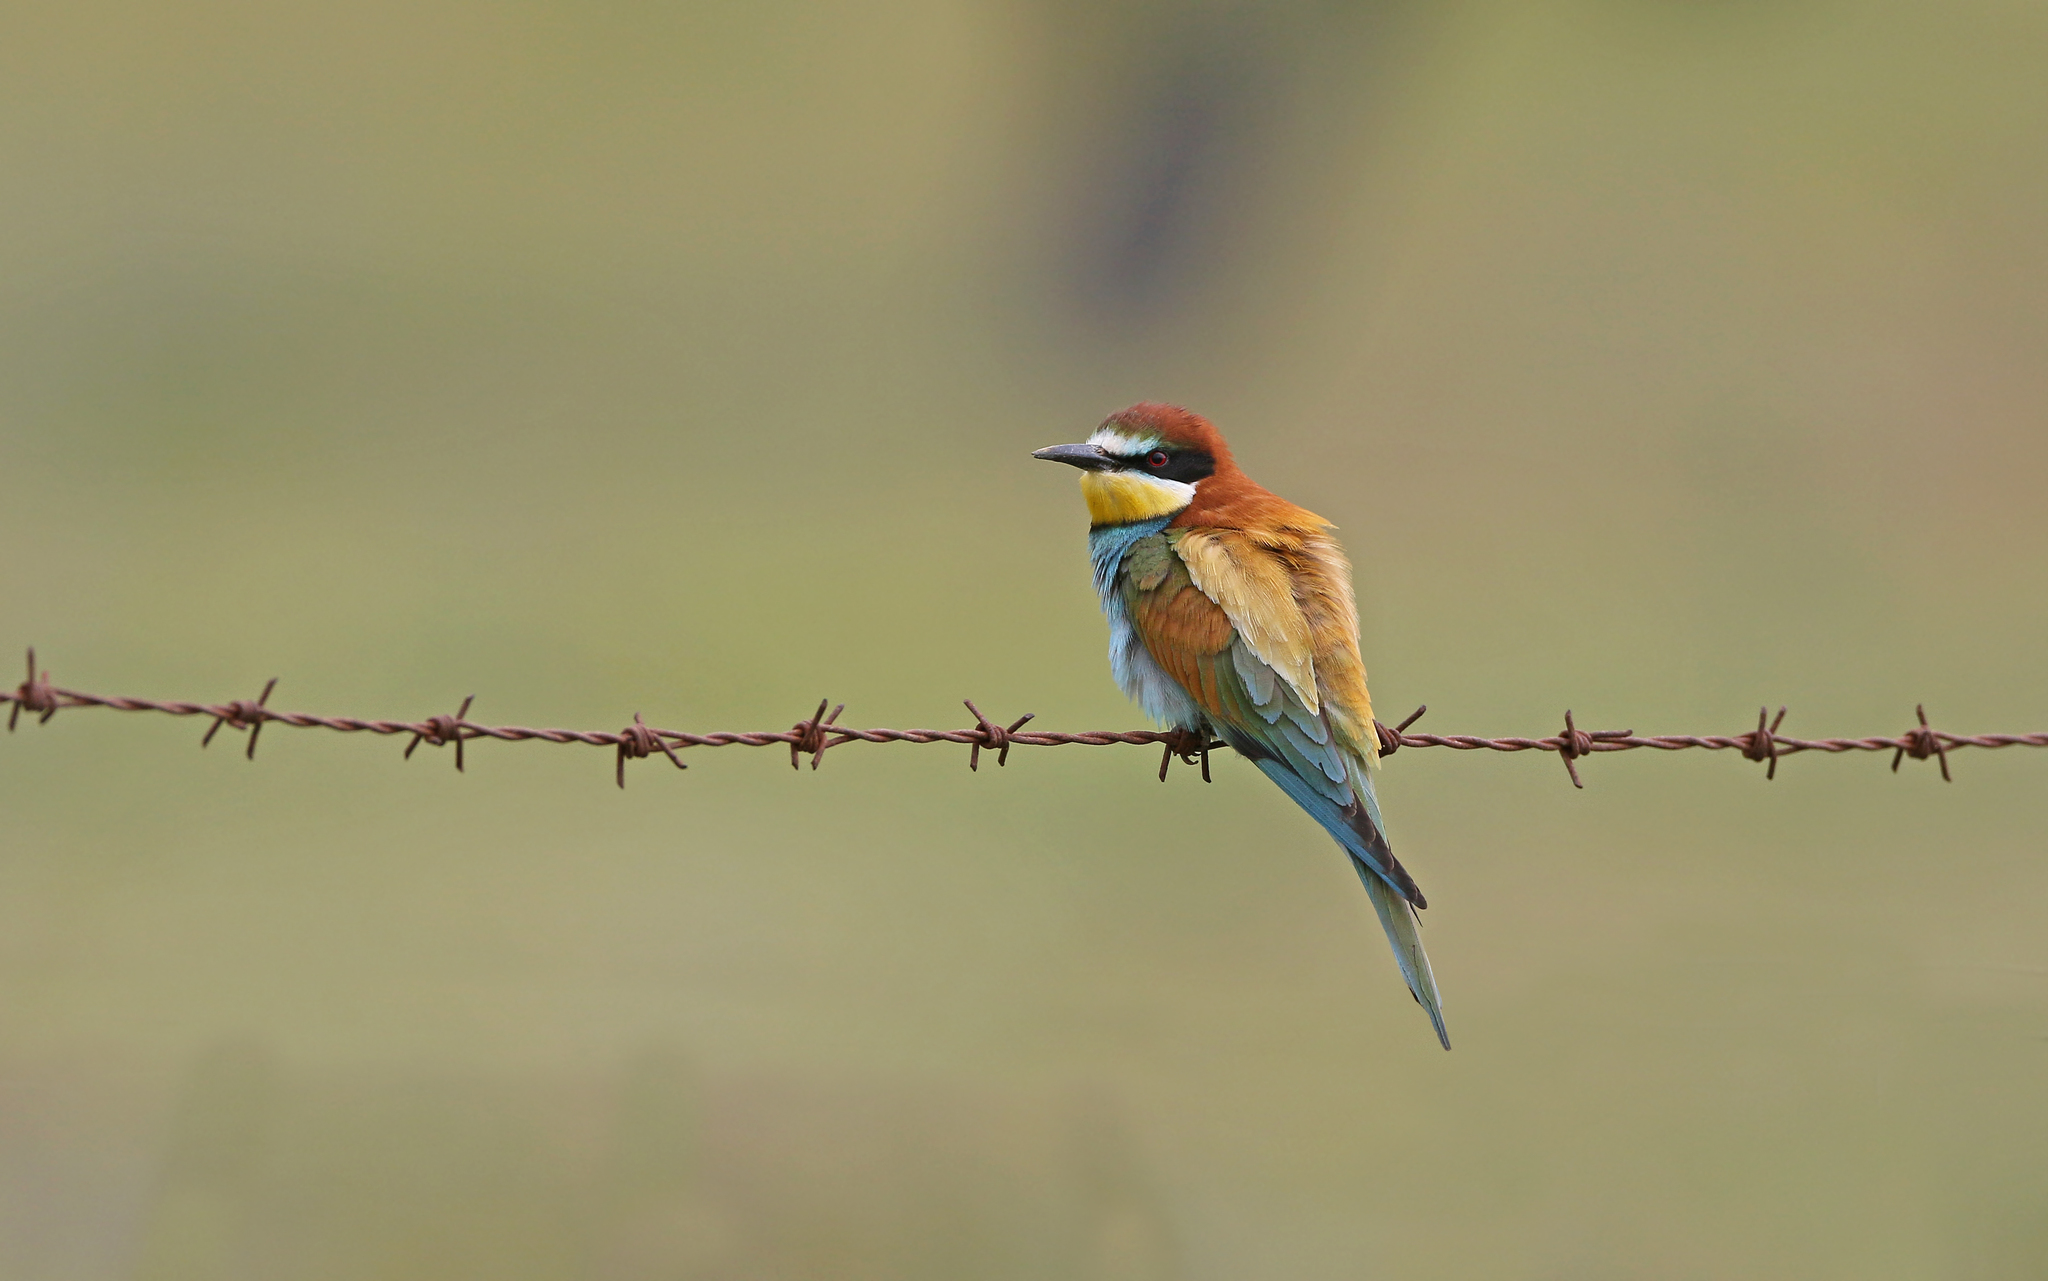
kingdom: Animalia
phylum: Chordata
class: Aves
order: Coraciiformes
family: Meropidae
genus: Merops
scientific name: Merops apiaster
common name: European bee-eater
